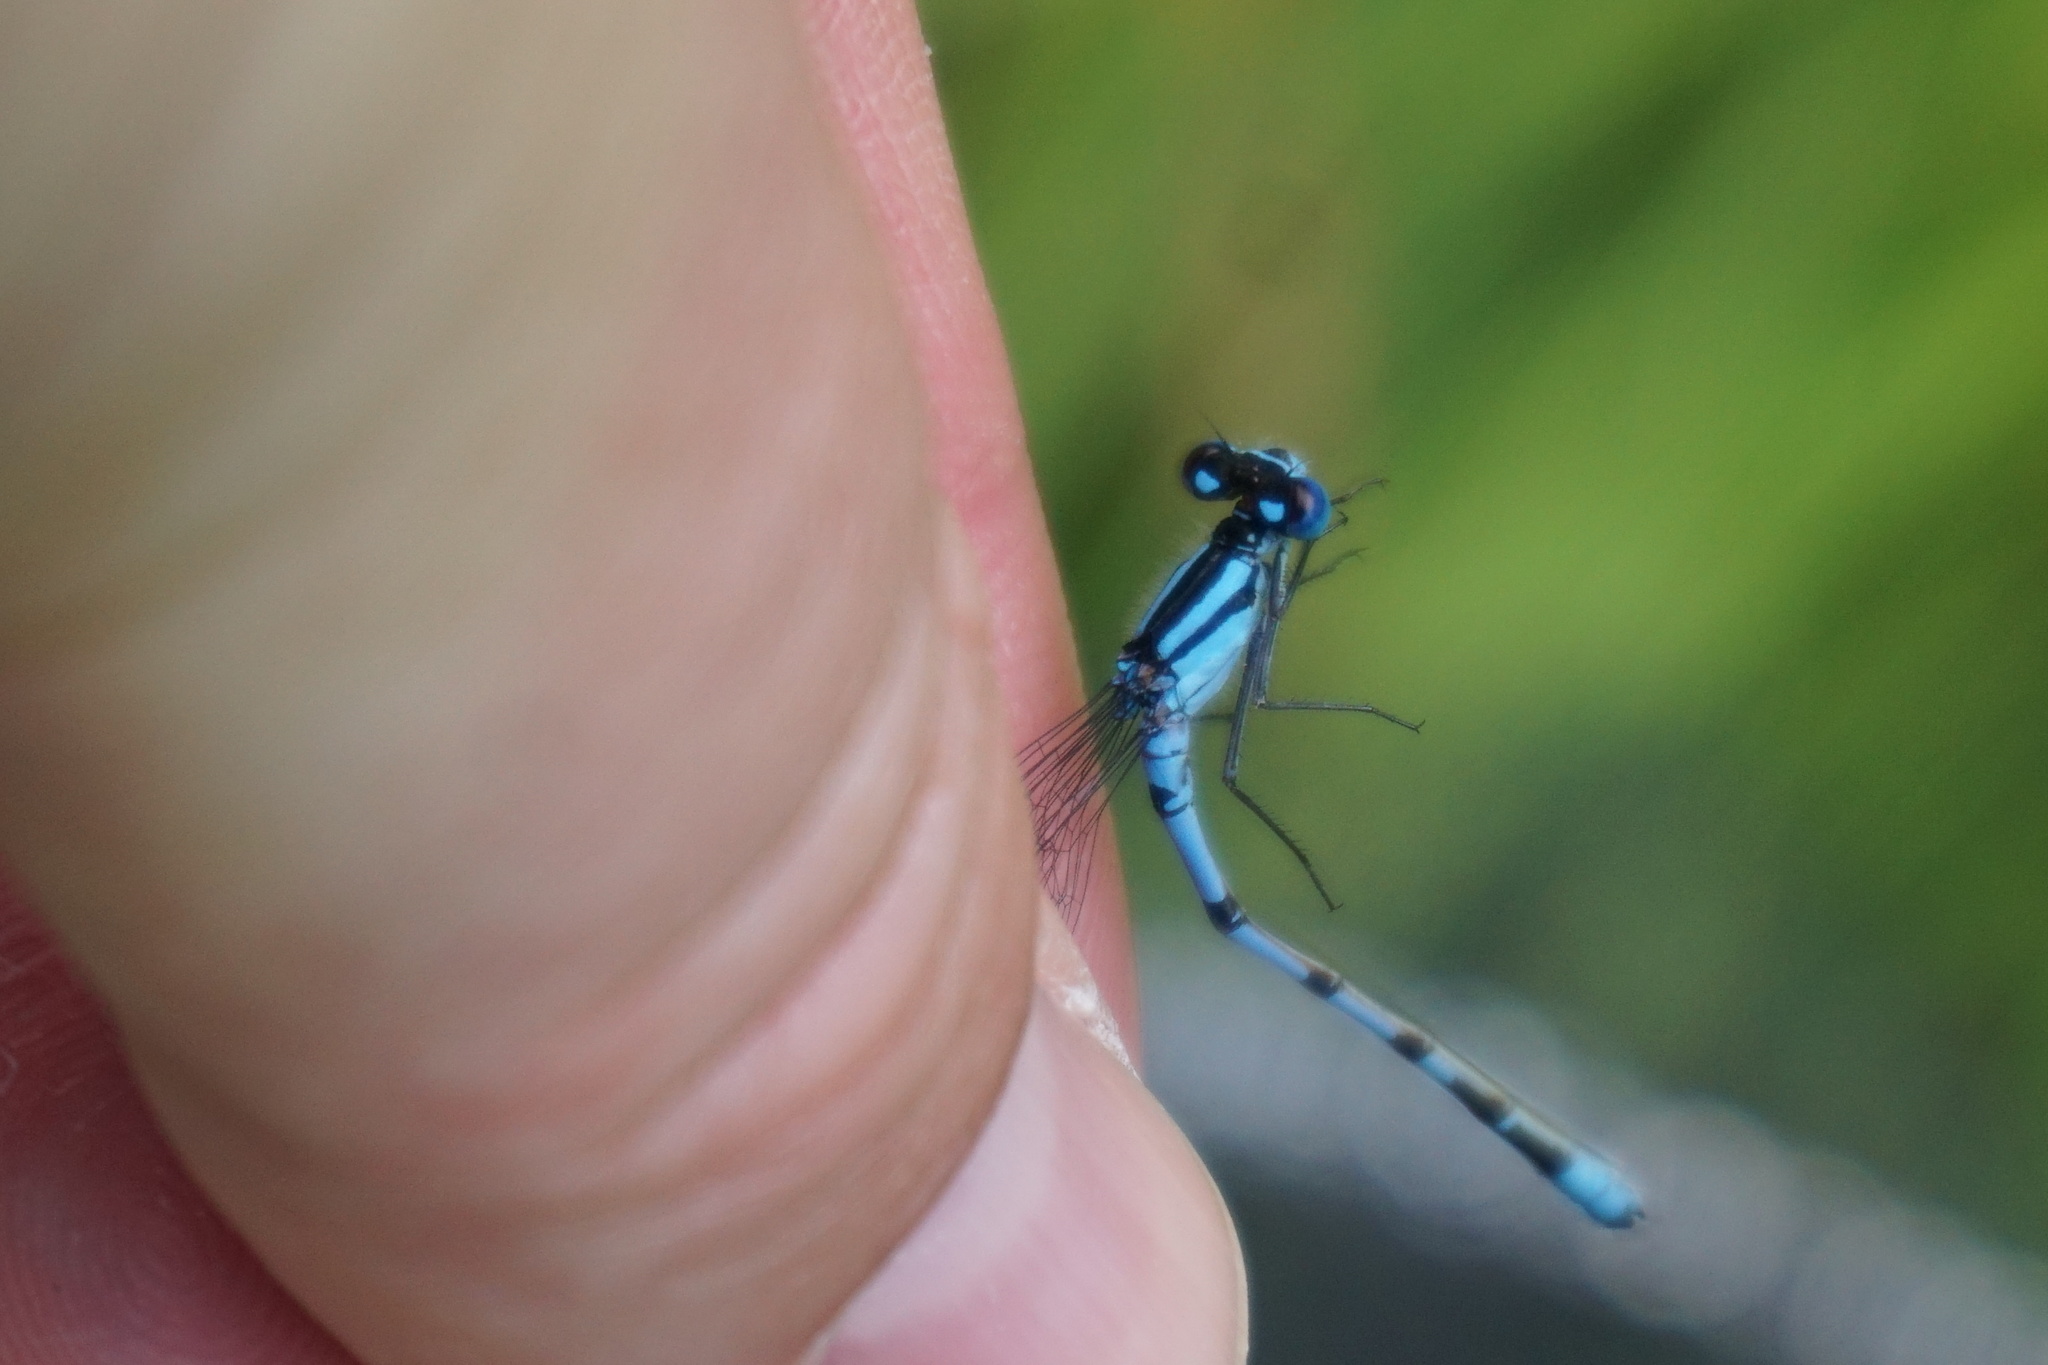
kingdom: Animalia
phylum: Arthropoda
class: Insecta
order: Odonata
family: Coenagrionidae
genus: Enallagma
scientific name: Enallagma cyathigerum
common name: Common blue damselfly
